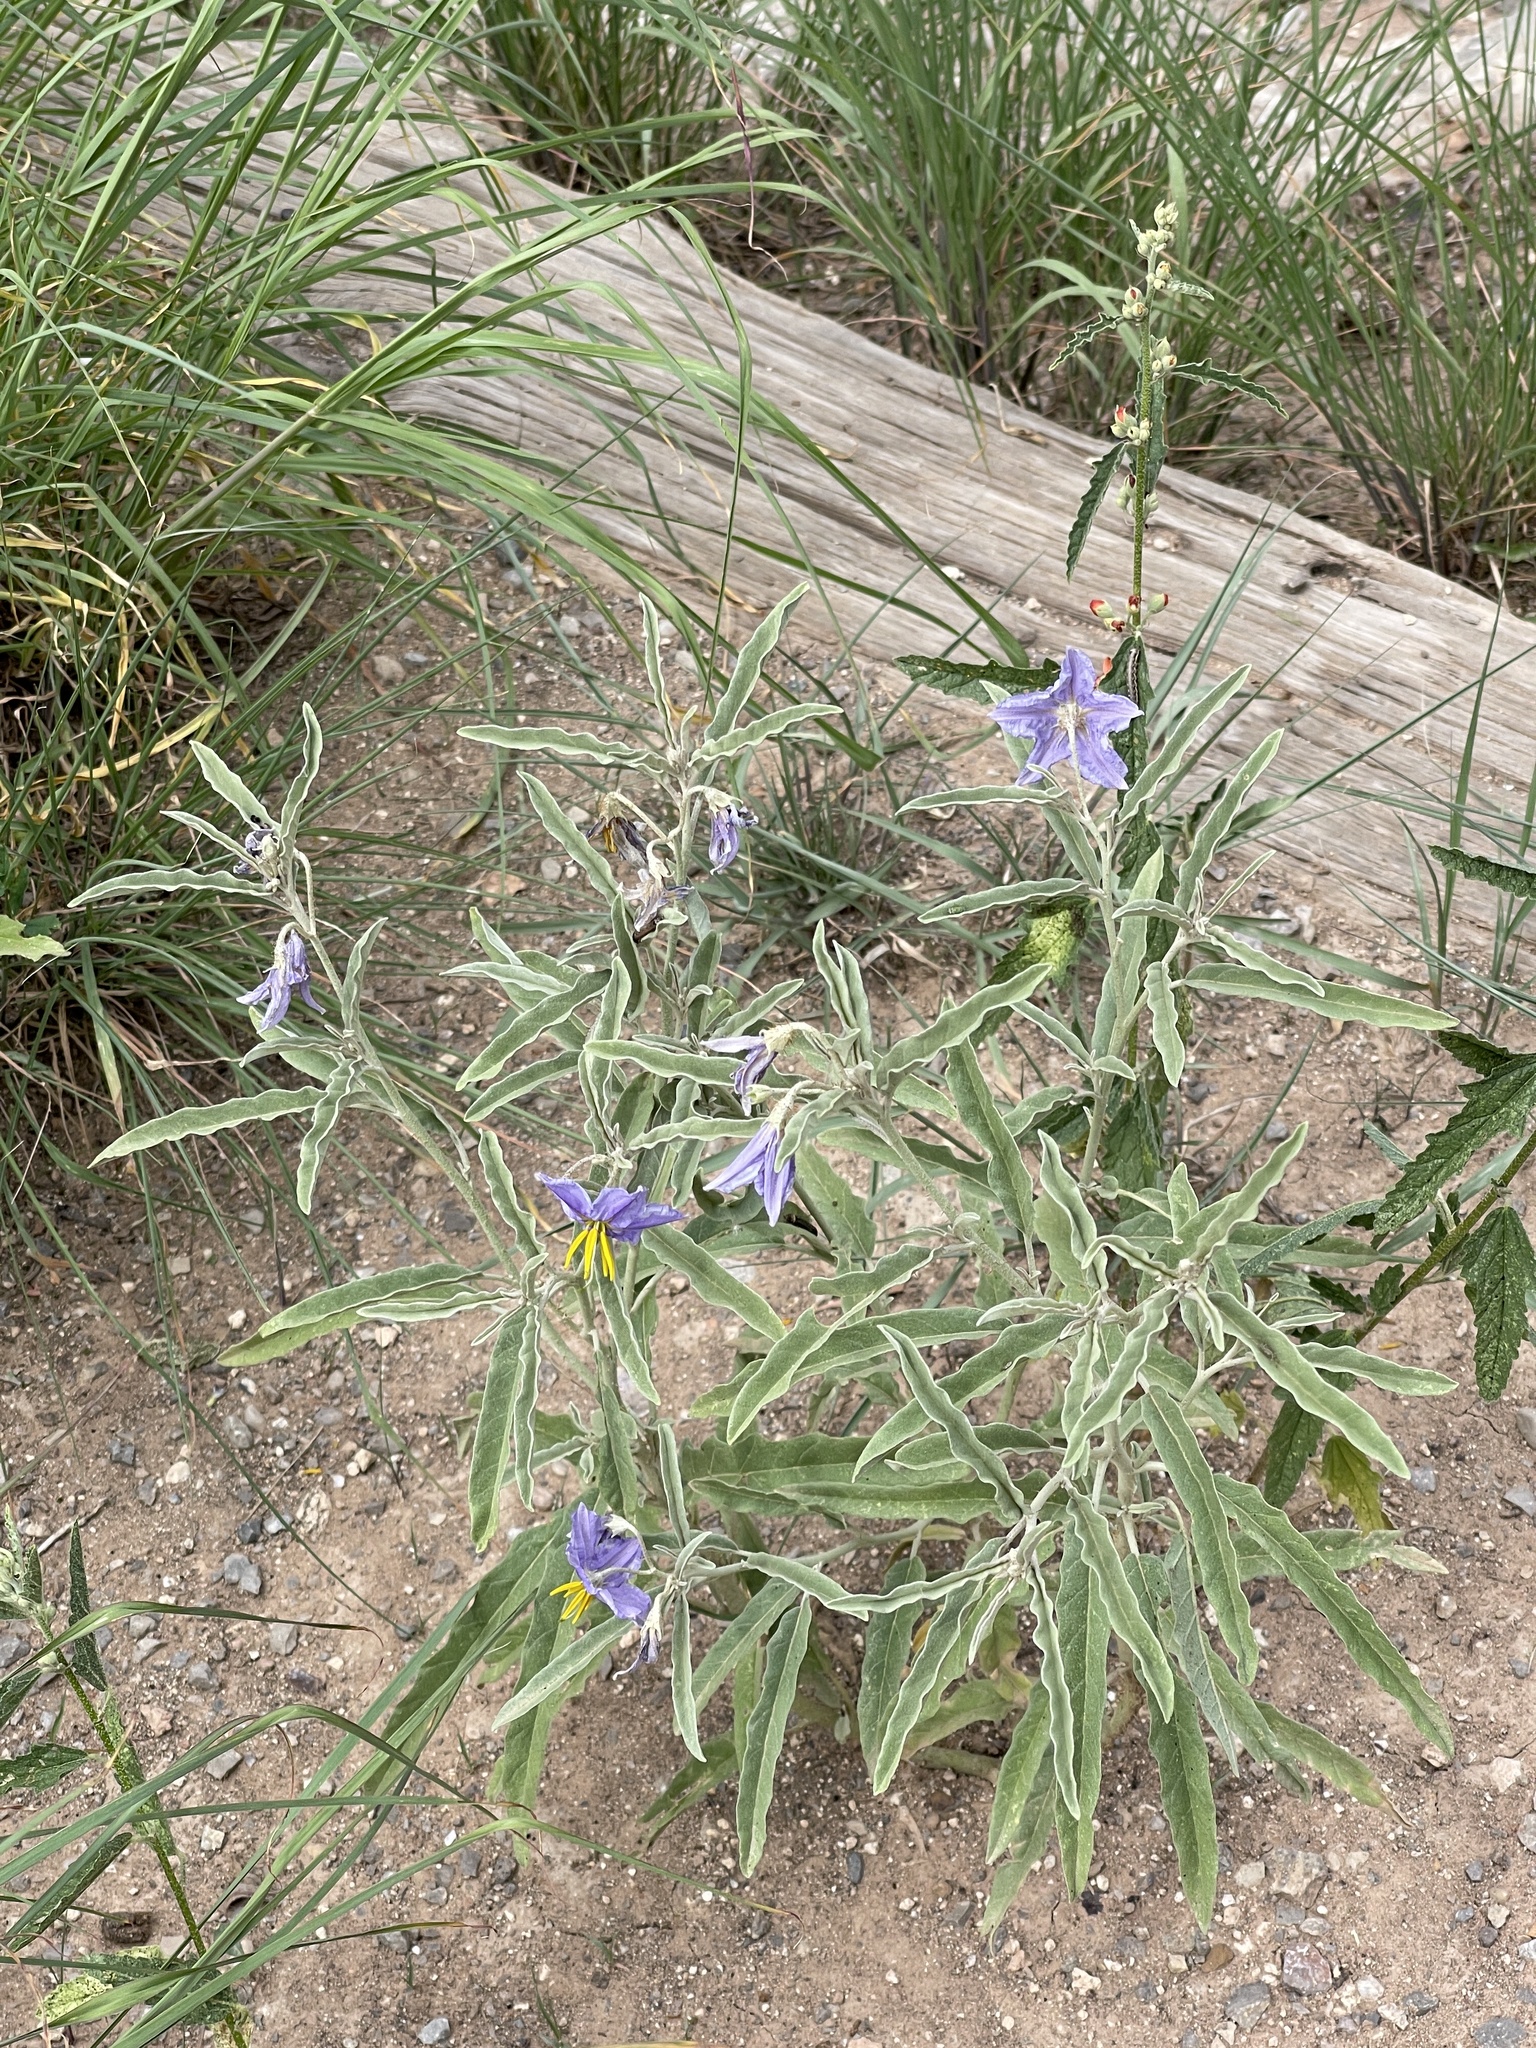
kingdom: Plantae
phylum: Tracheophyta
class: Magnoliopsida
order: Solanales
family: Solanaceae
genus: Solanum
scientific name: Solanum elaeagnifolium
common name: Silverleaf nightshade
